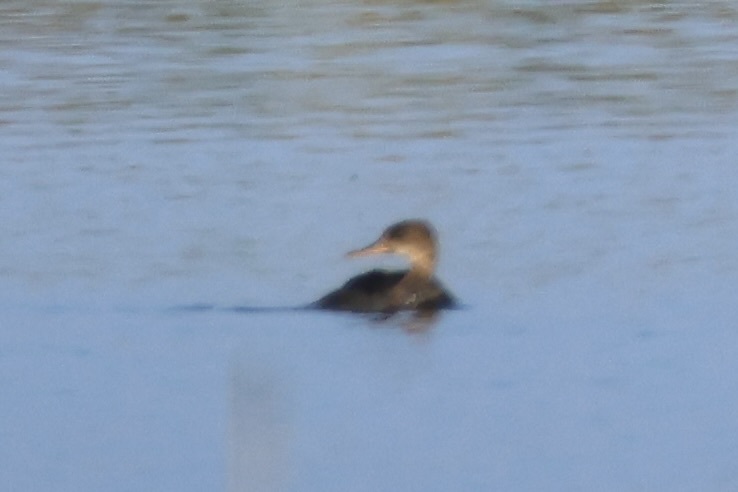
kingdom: Animalia
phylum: Chordata
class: Aves
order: Anseriformes
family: Anatidae
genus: Lophodytes
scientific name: Lophodytes cucullatus
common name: Hooded merganser
